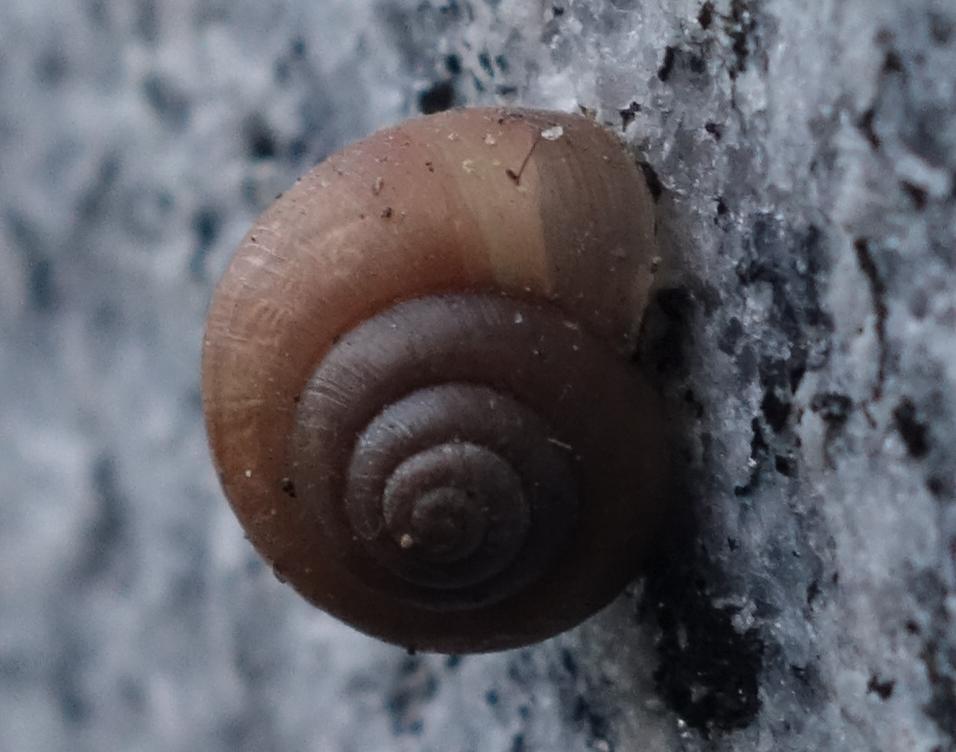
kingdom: Animalia
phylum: Mollusca
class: Gastropoda
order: Stylommatophora
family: Camaenidae
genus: Acusta
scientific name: Acusta toyenmongaiensis
